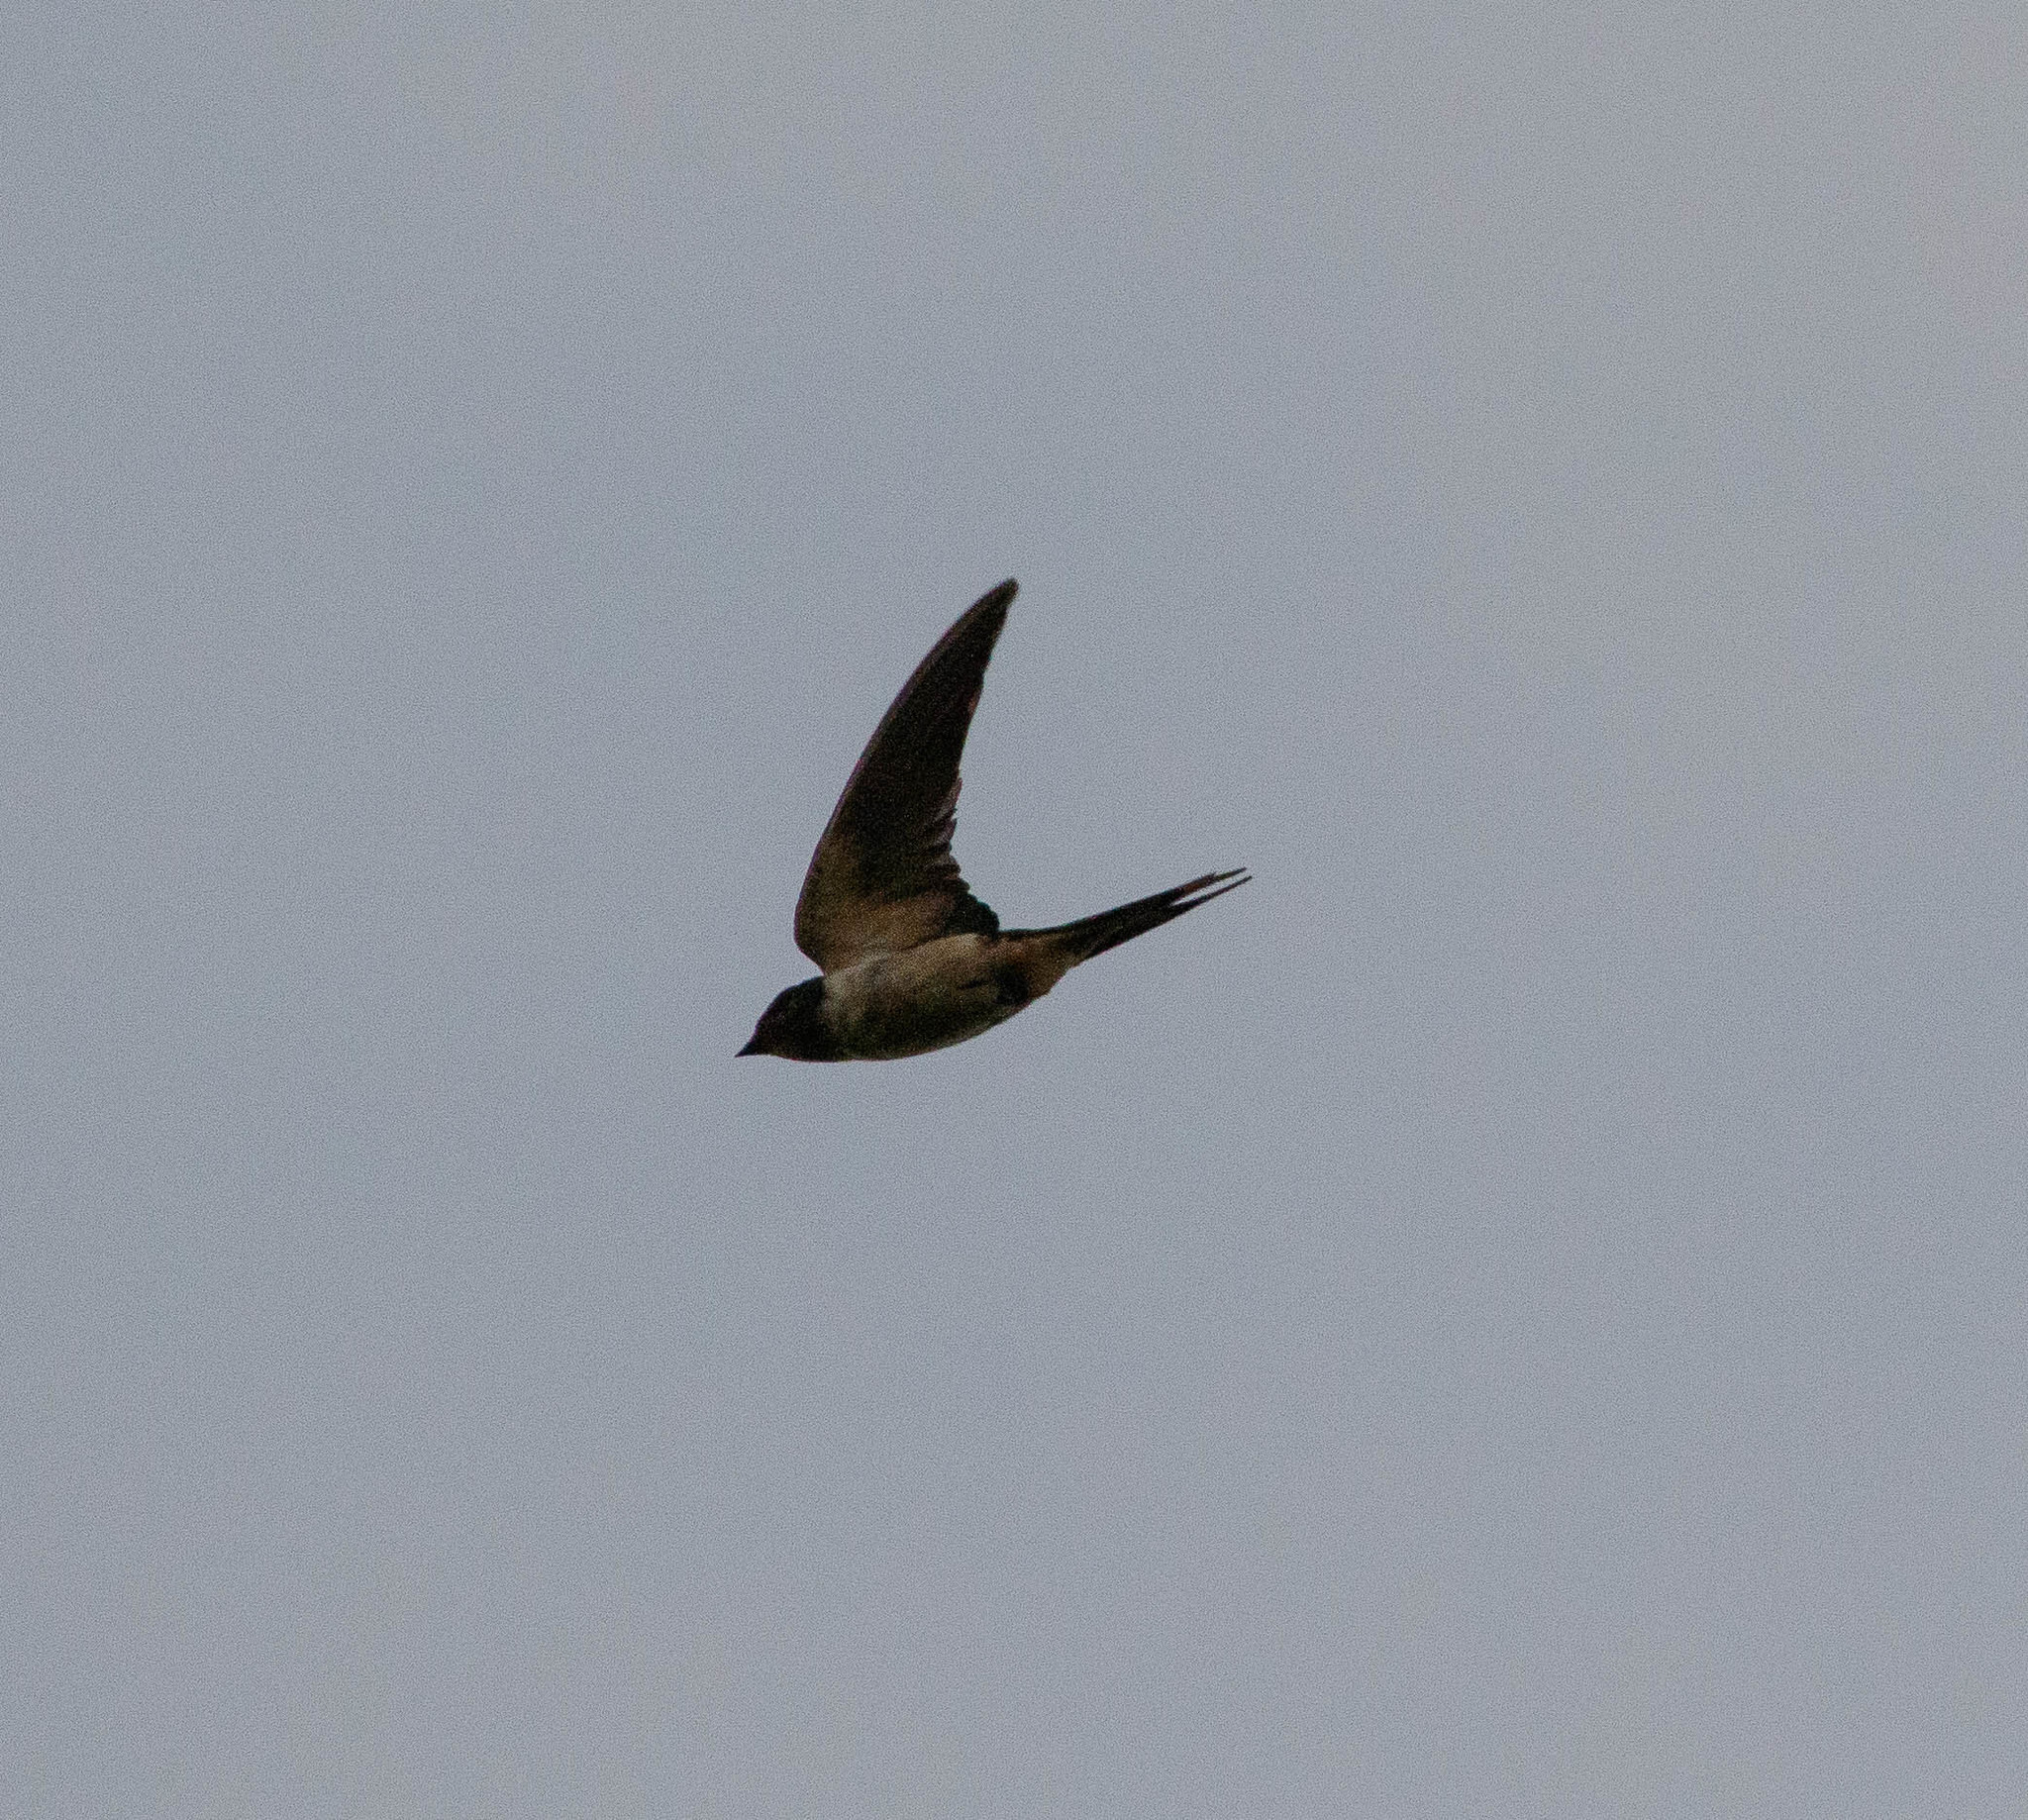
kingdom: Animalia
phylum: Chordata
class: Aves
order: Passeriformes
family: Hirundinidae
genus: Hirundo
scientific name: Hirundo rustica
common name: Barn swallow
